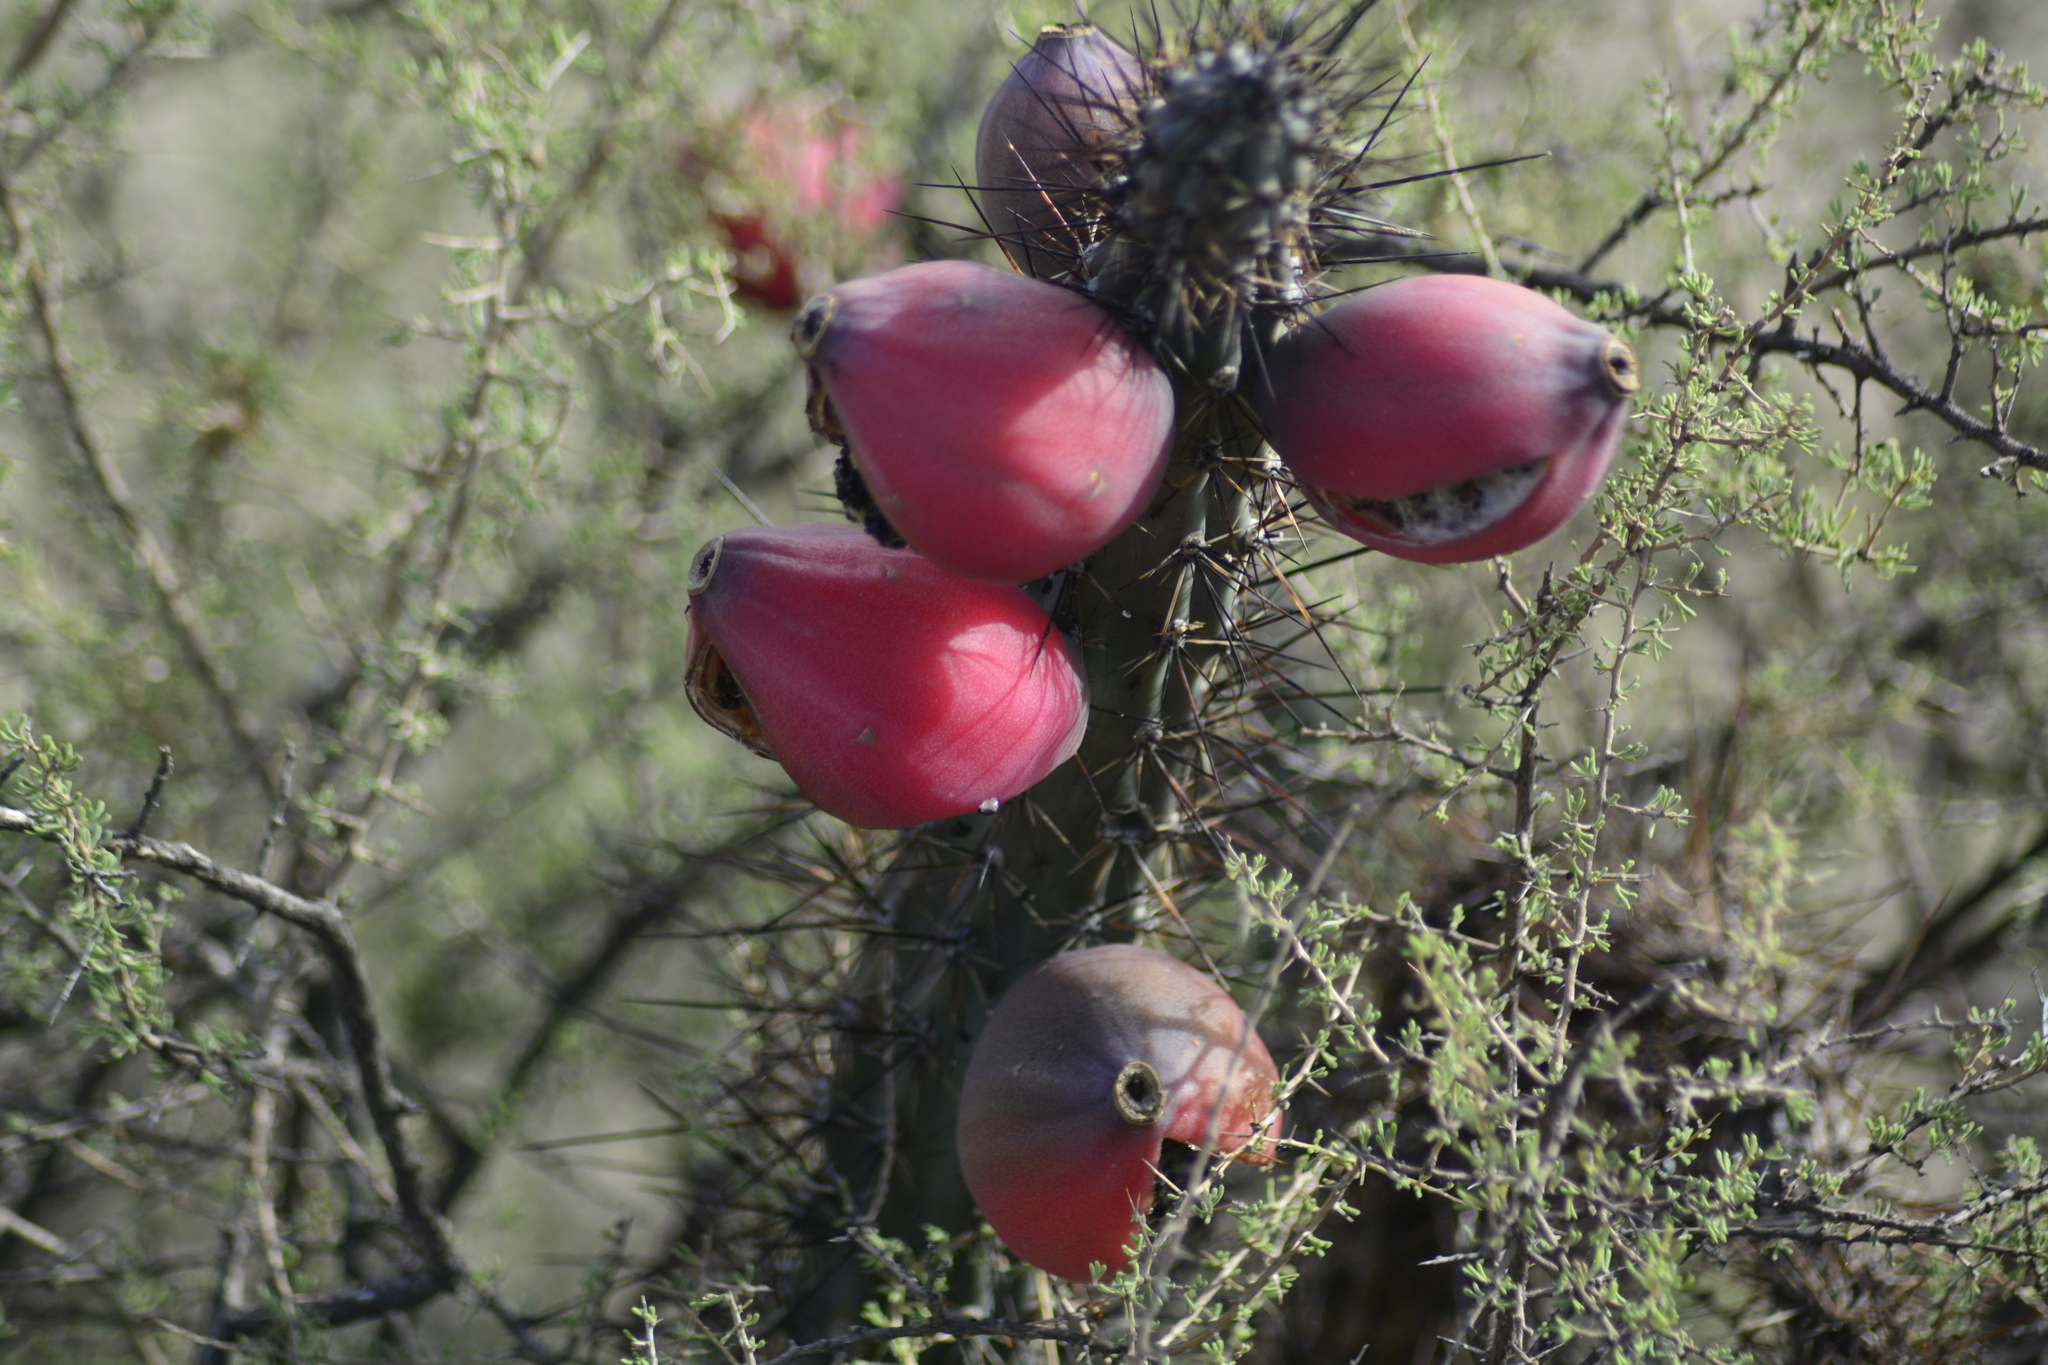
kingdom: Plantae
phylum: Tracheophyta
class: Magnoliopsida
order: Caryophyllales
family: Cactaceae
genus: Cereus
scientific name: Cereus aethiops
